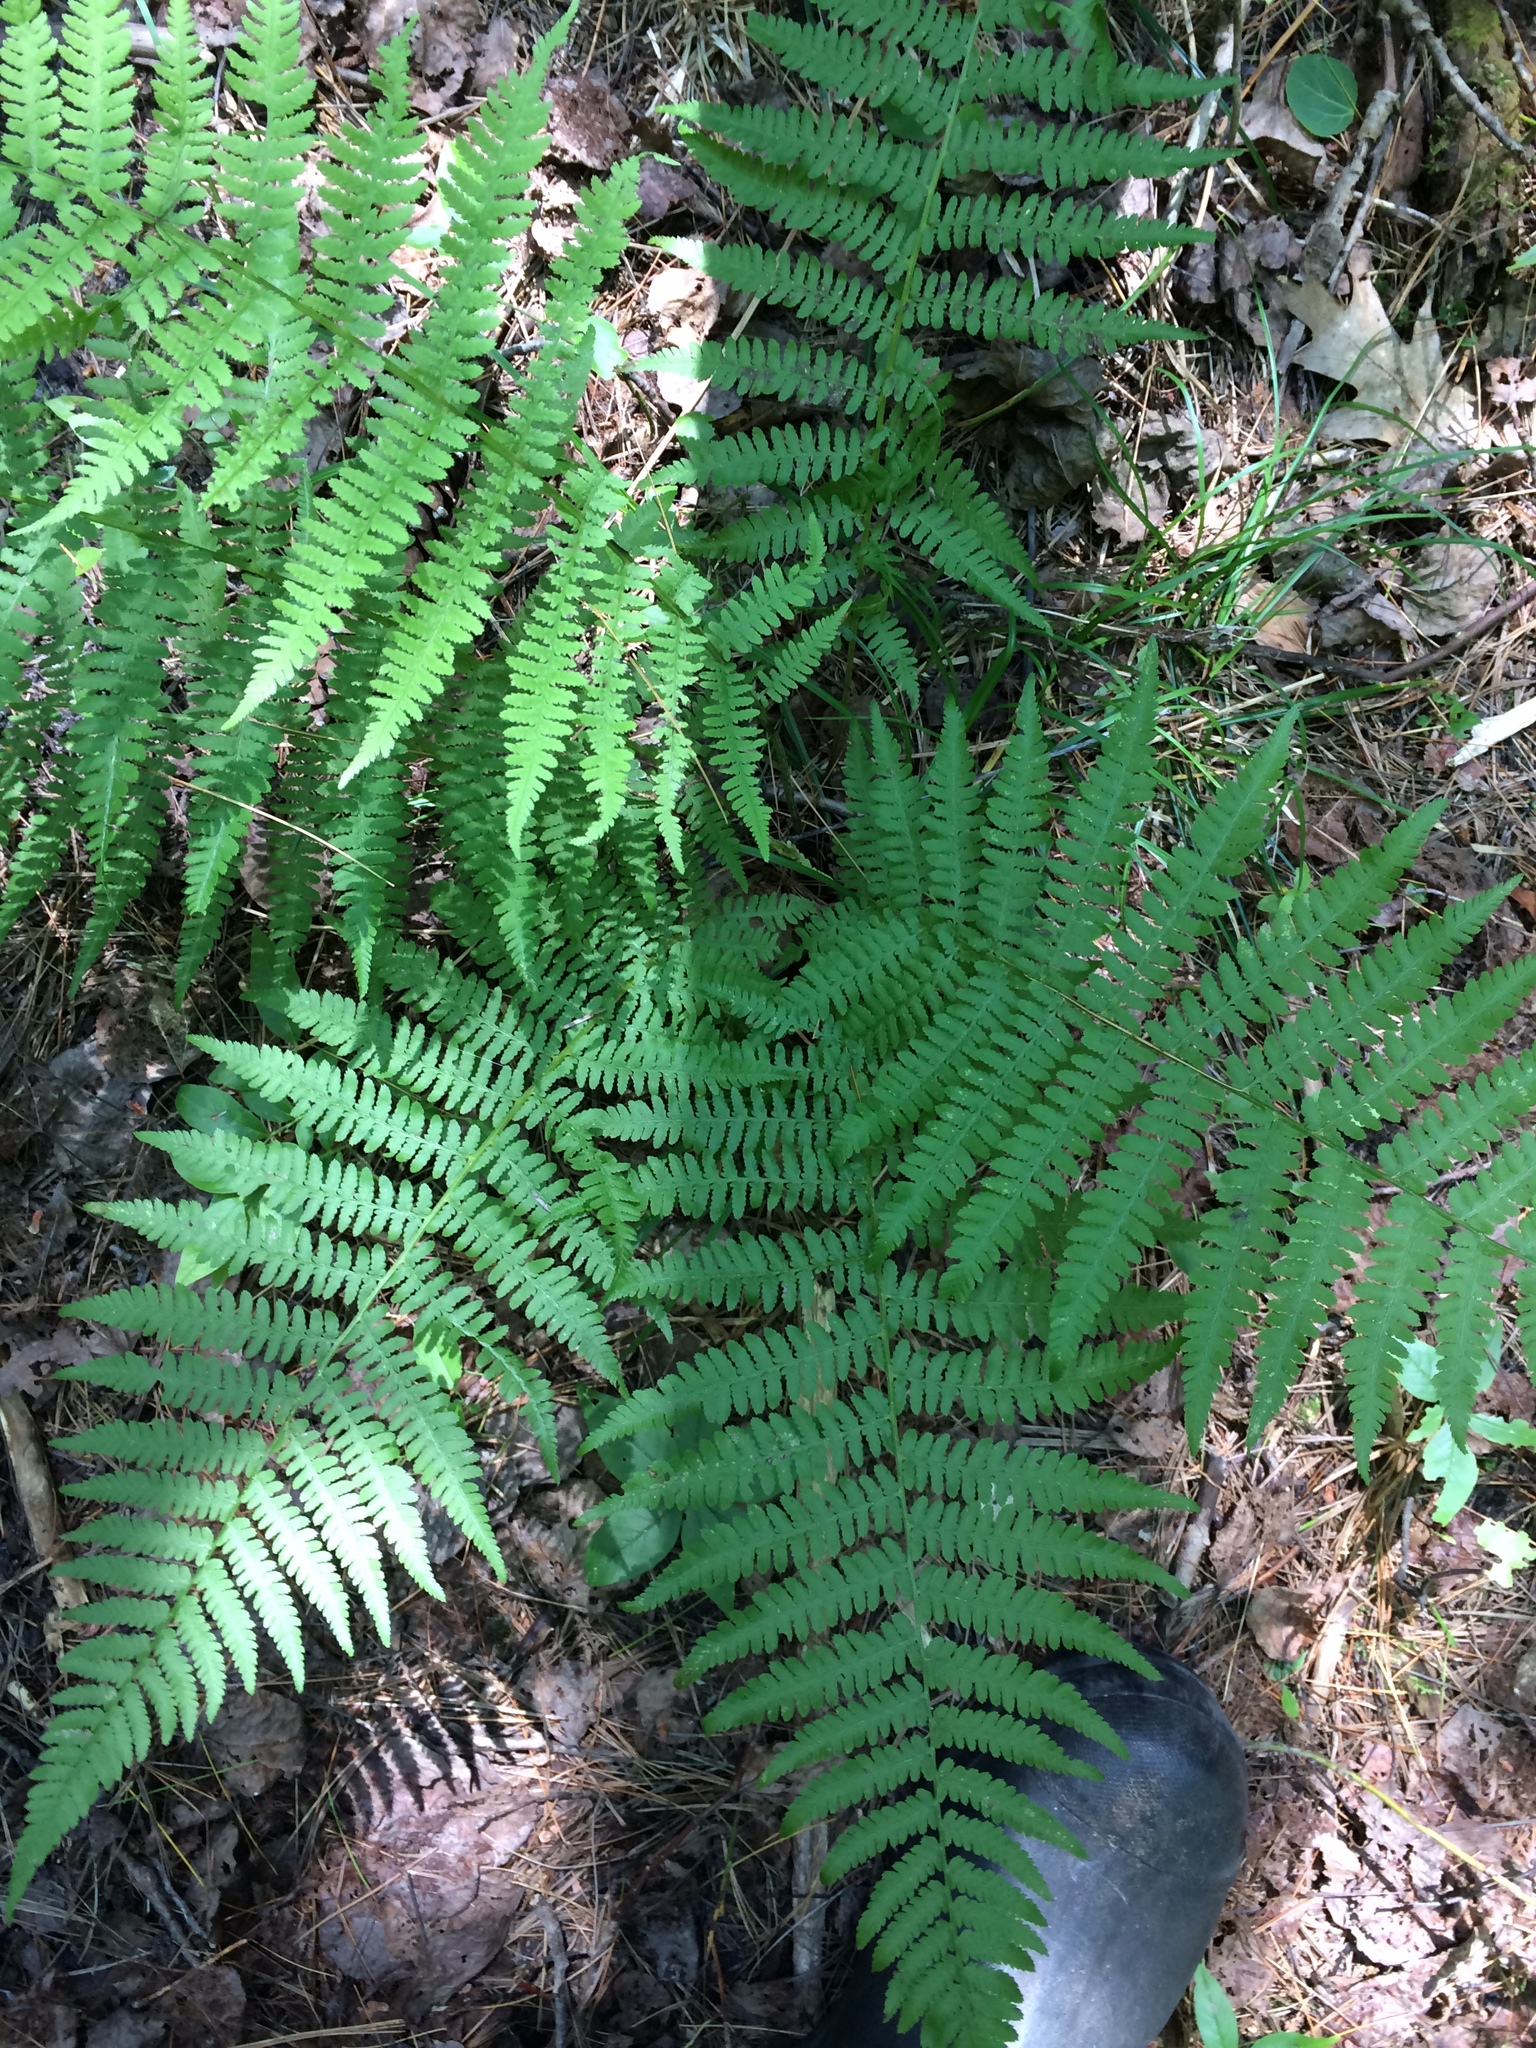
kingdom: Plantae
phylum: Tracheophyta
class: Polypodiopsida
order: Polypodiales
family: Athyriaceae
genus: Athyrium
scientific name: Athyrium angustum
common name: Northern lady fern
